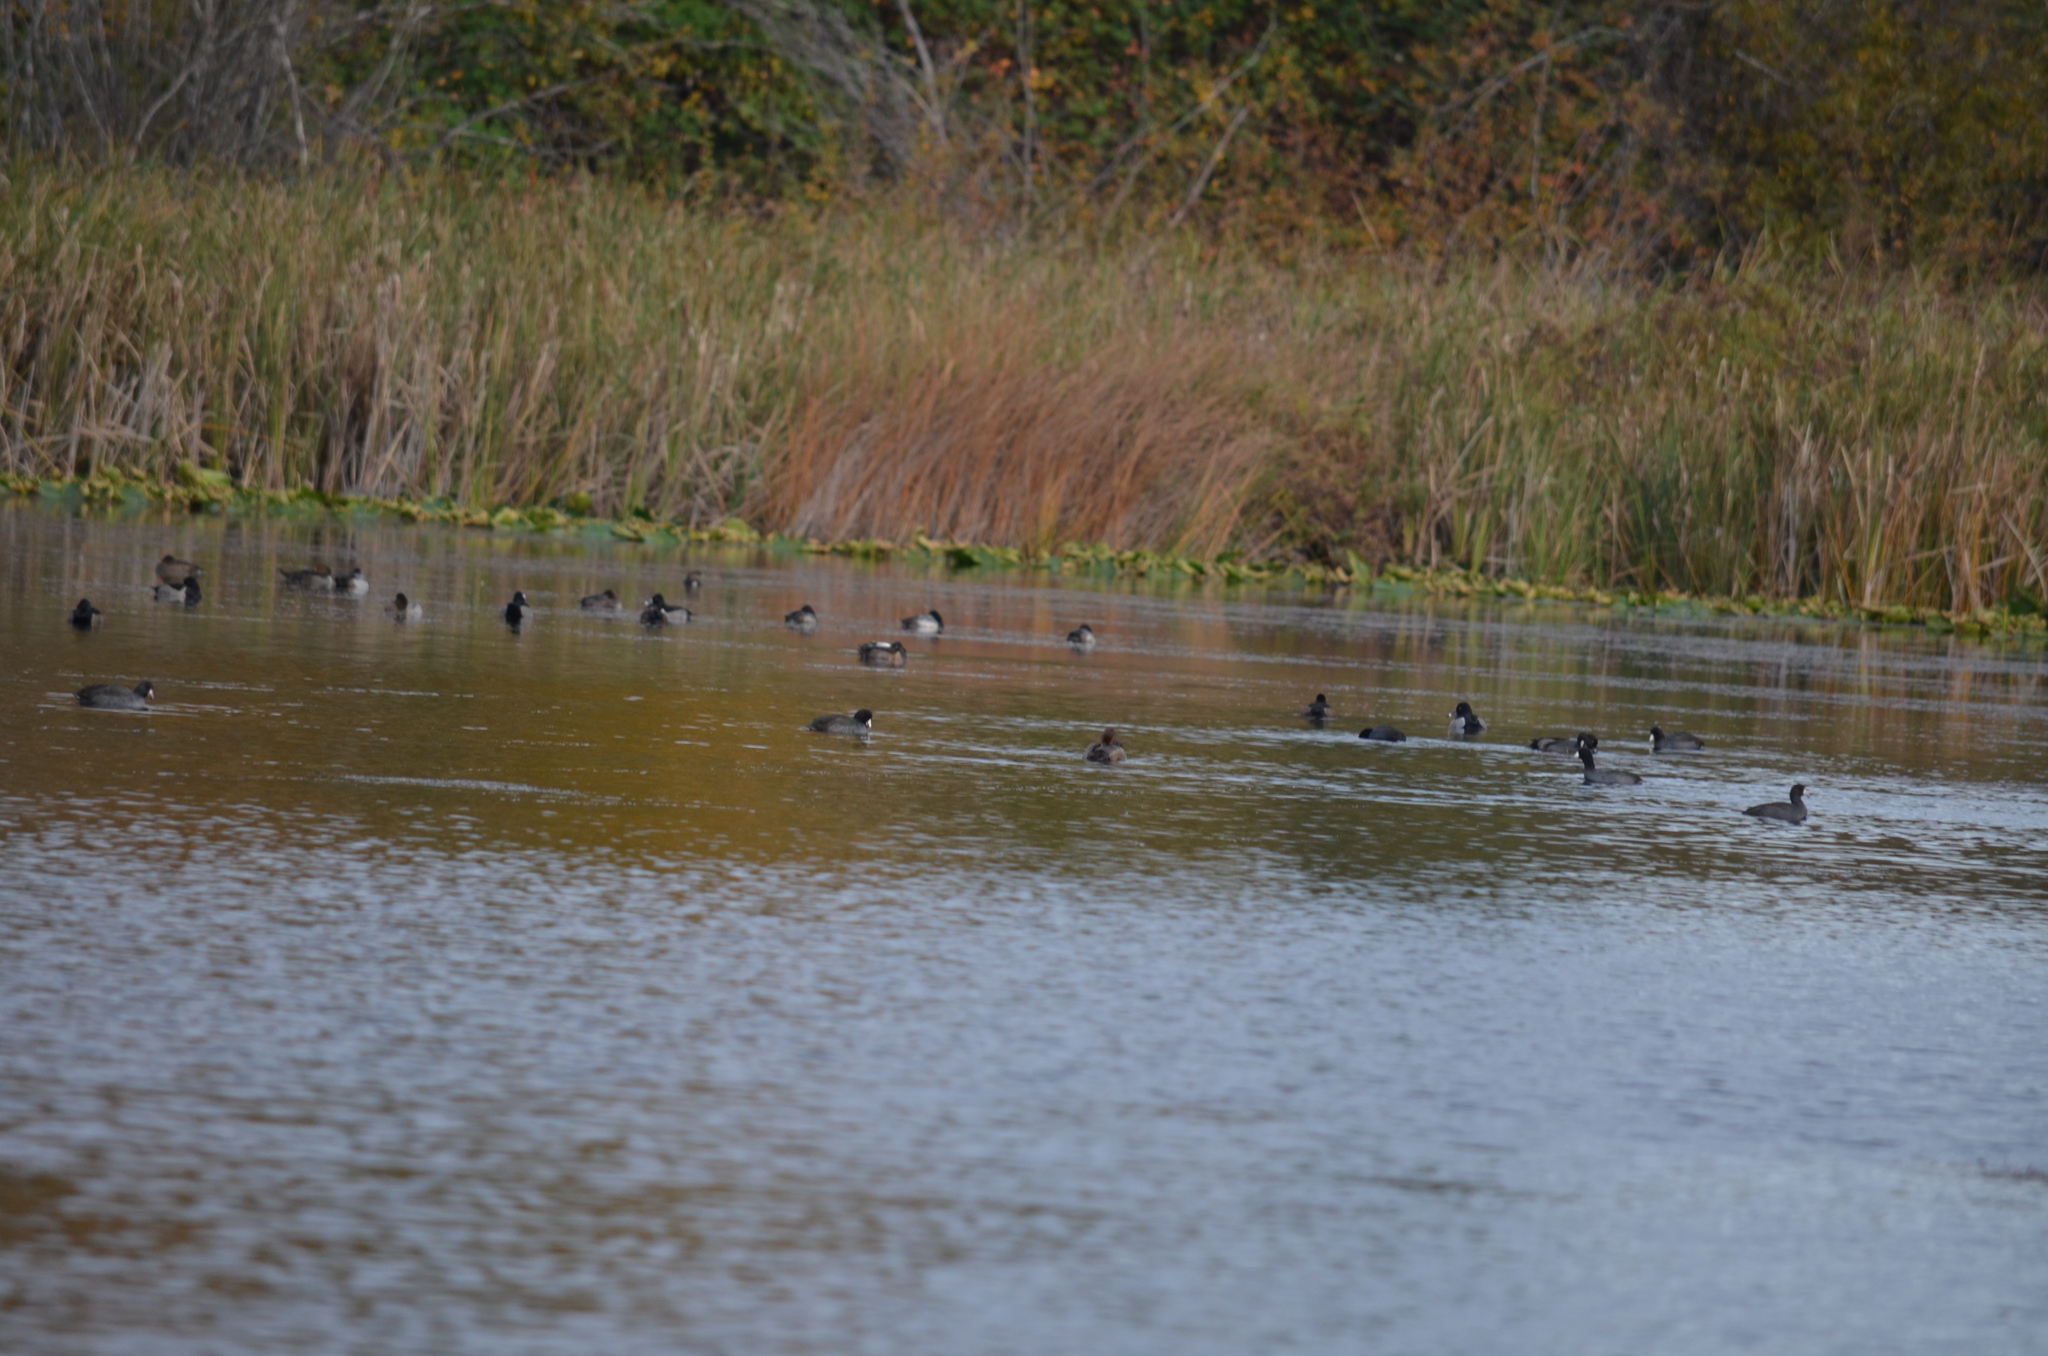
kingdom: Animalia
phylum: Chordata
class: Aves
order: Gruiformes
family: Rallidae
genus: Fulica
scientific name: Fulica americana
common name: American coot
